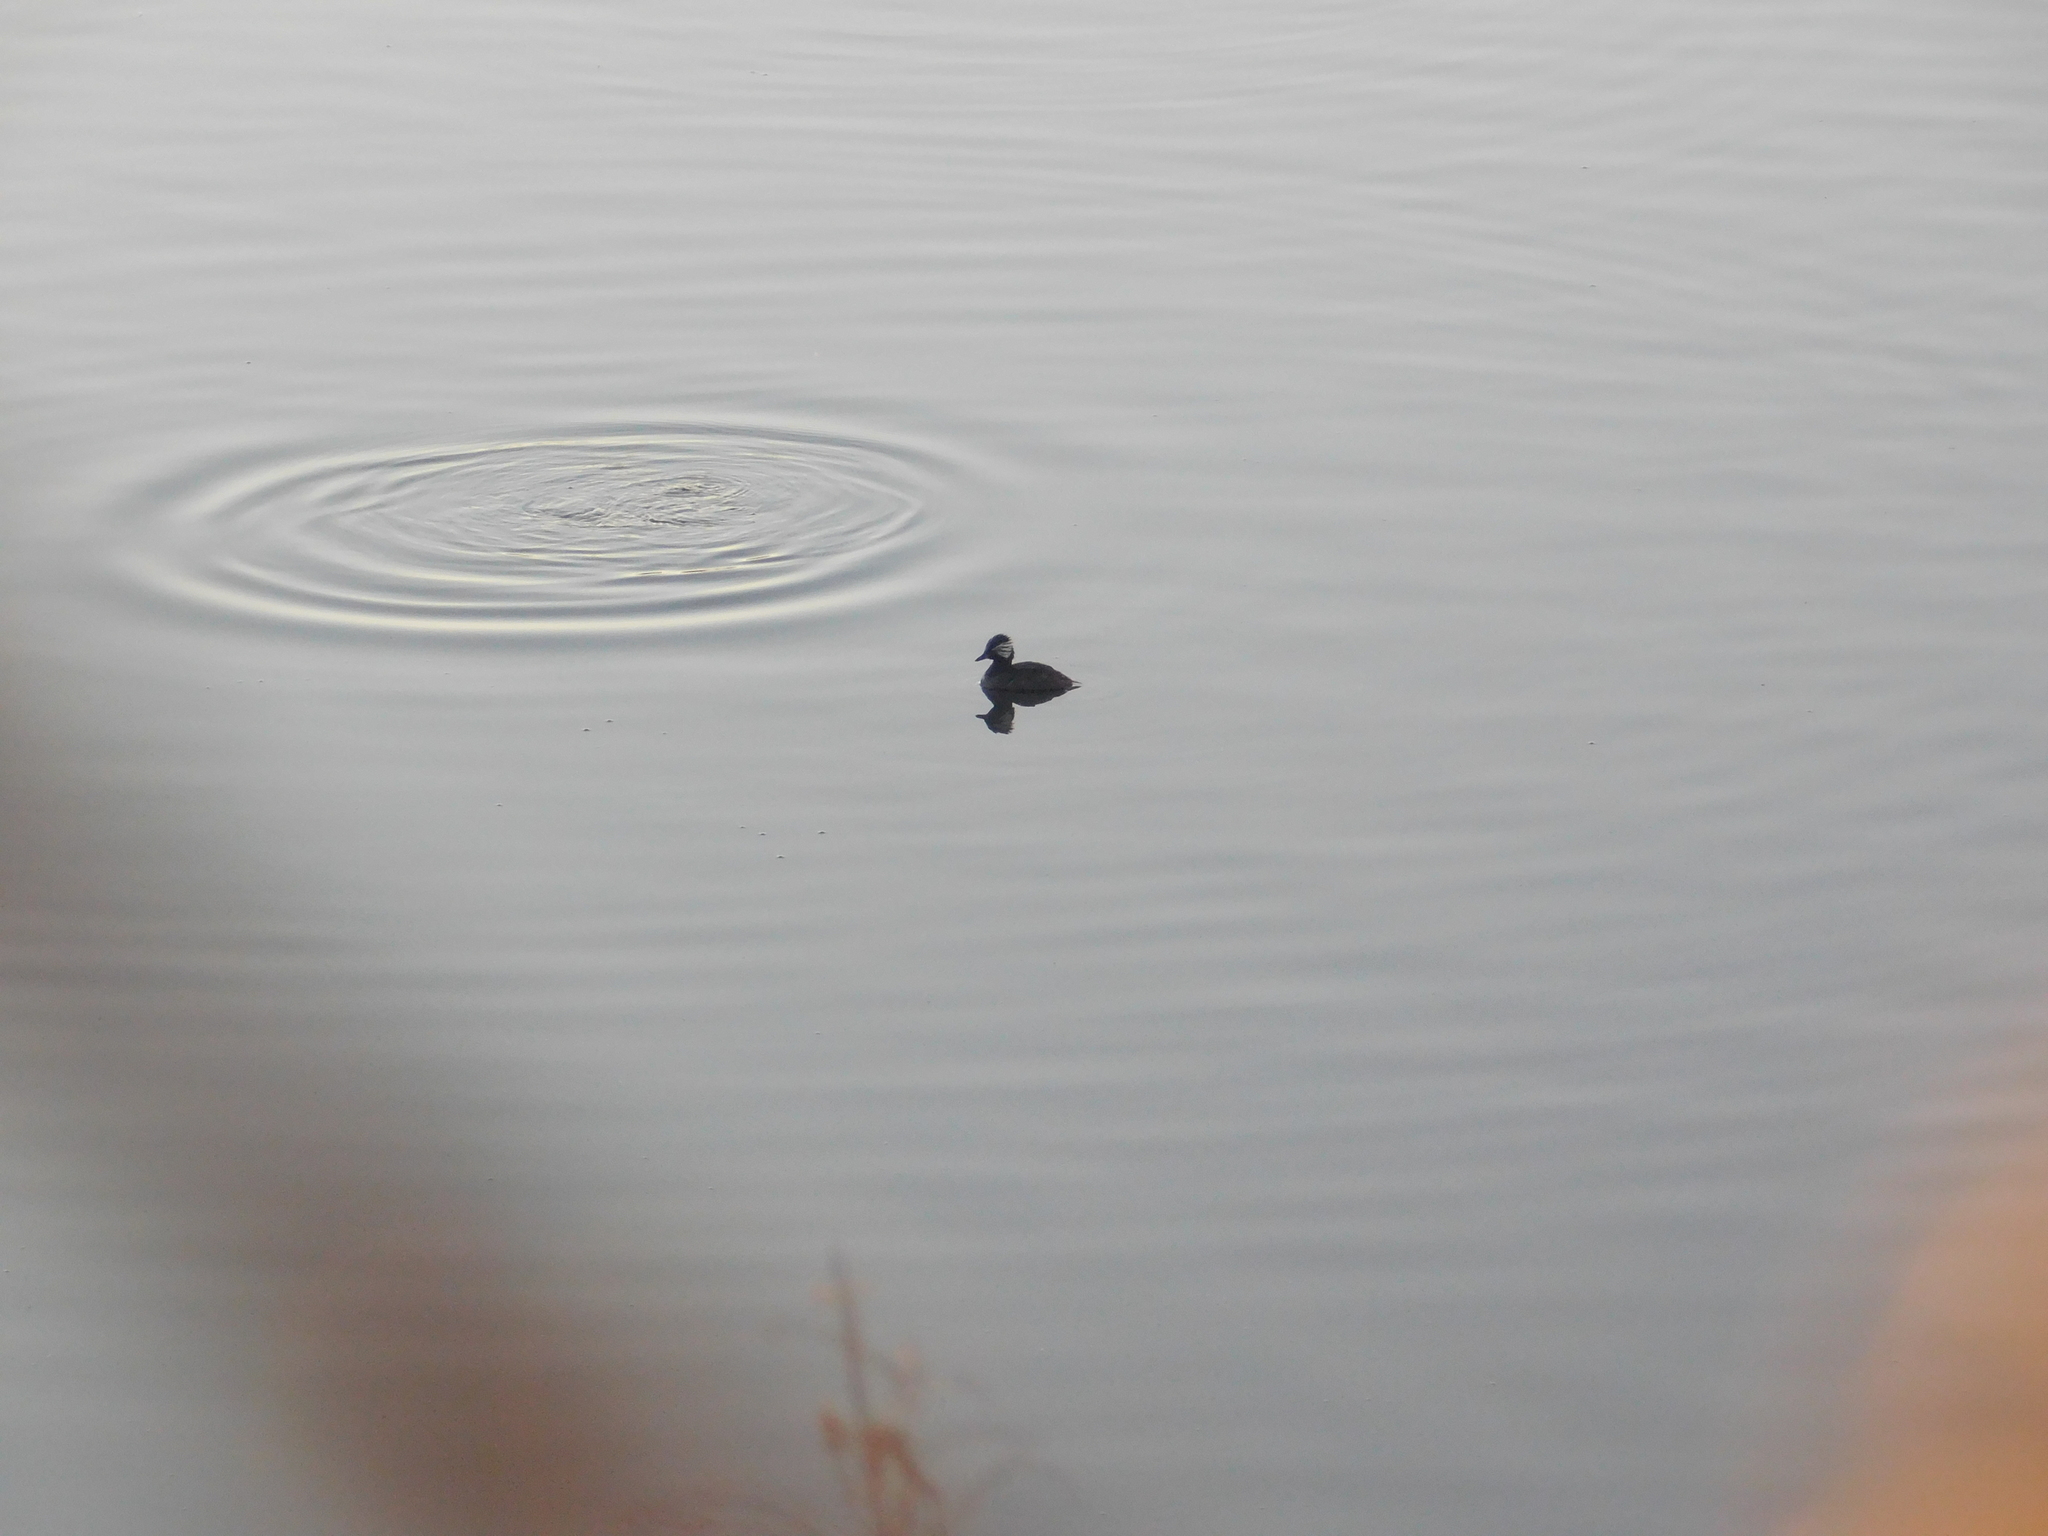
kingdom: Animalia
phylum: Chordata
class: Aves
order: Podicipediformes
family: Podicipedidae
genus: Rollandia
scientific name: Rollandia rolland
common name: White-tufted grebe
